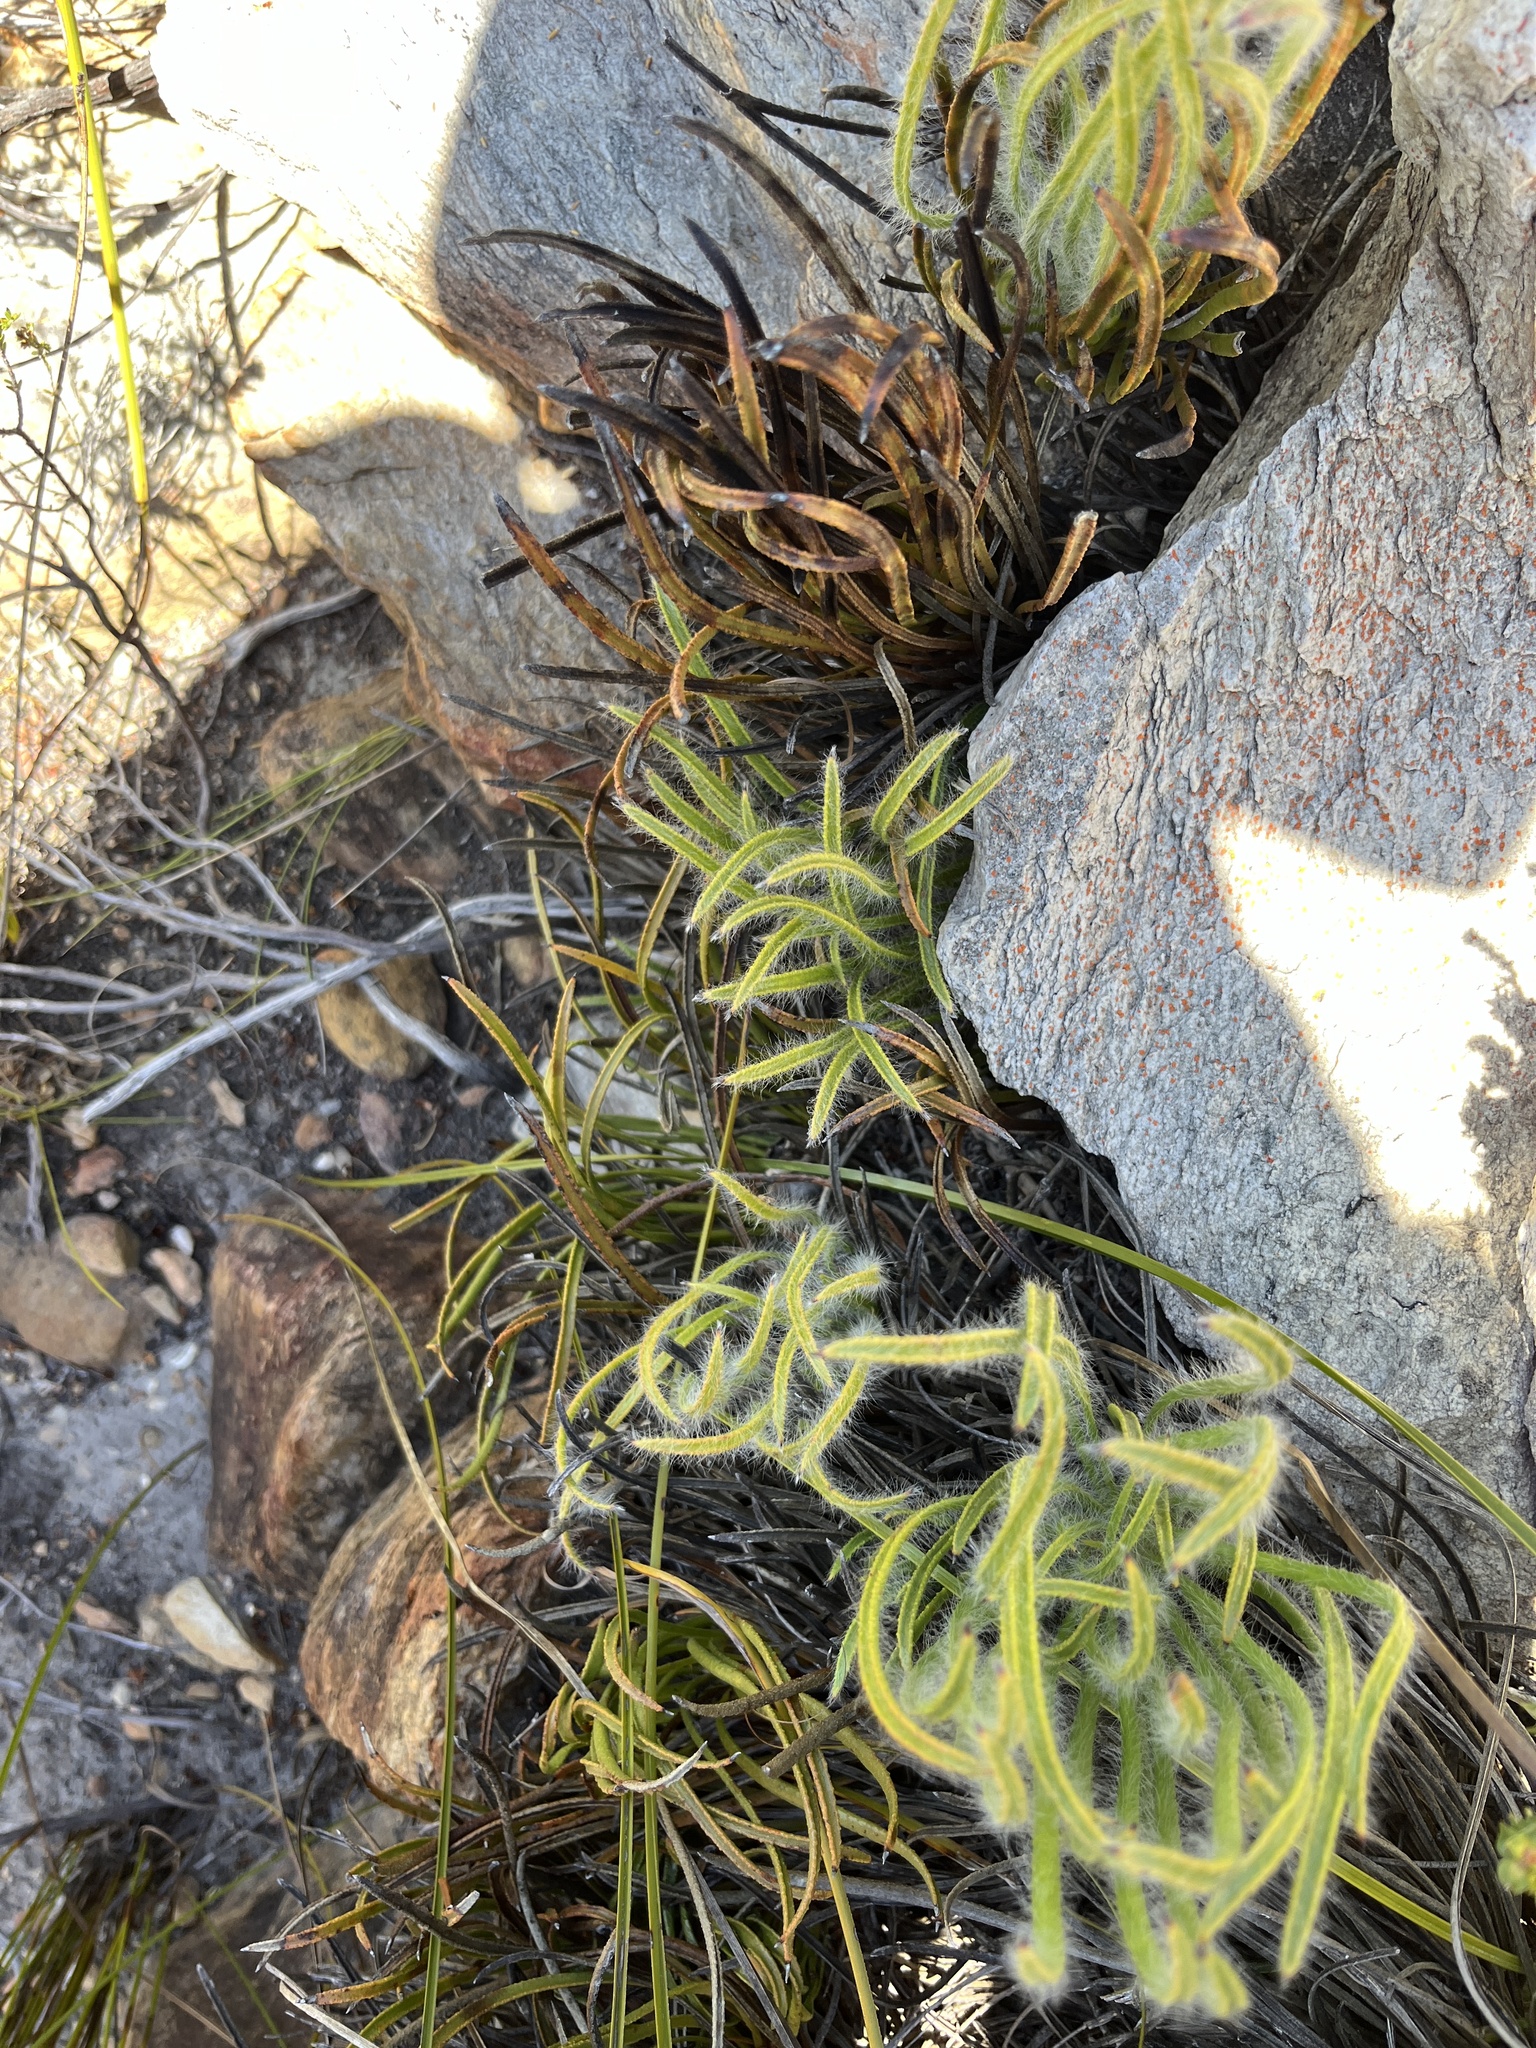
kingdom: Plantae
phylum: Tracheophyta
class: Magnoliopsida
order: Proteales
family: Proteaceae
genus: Protea
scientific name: Protea aspera
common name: Rough-leaf sugarbush
